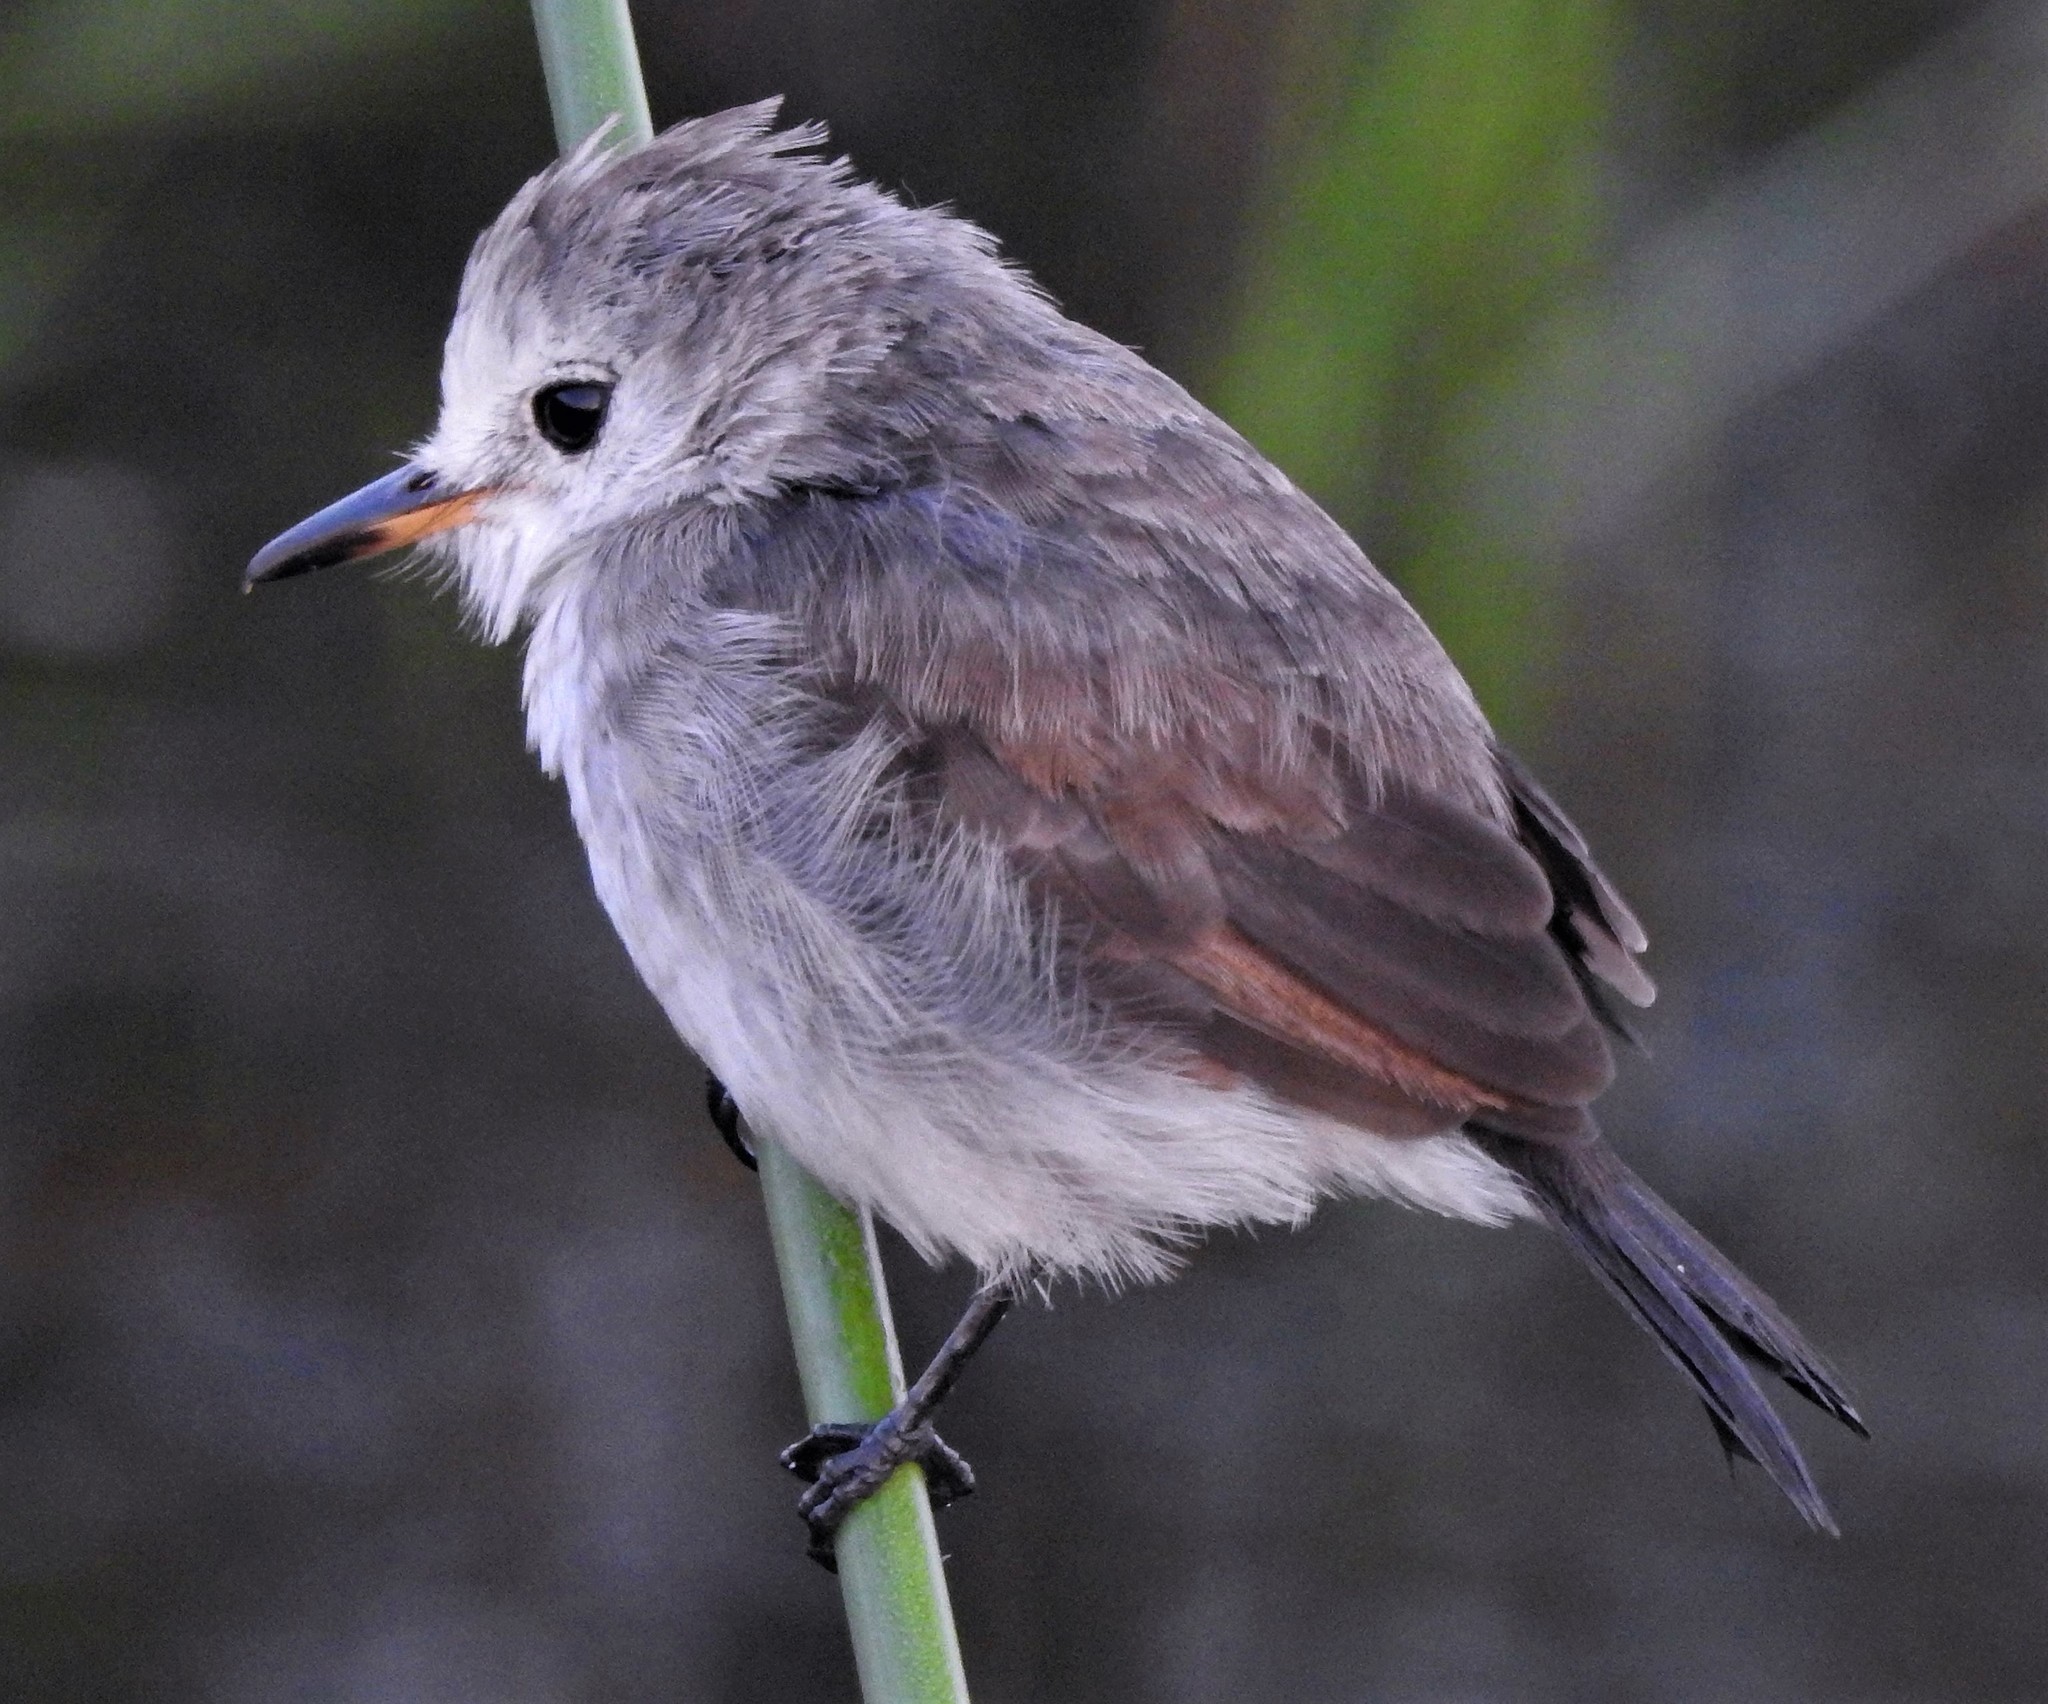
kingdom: Animalia
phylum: Chordata
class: Aves
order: Passeriformes
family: Tyrannidae
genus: Arundinicola
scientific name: Arundinicola leucocephala
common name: White-headed marsh tyrant
